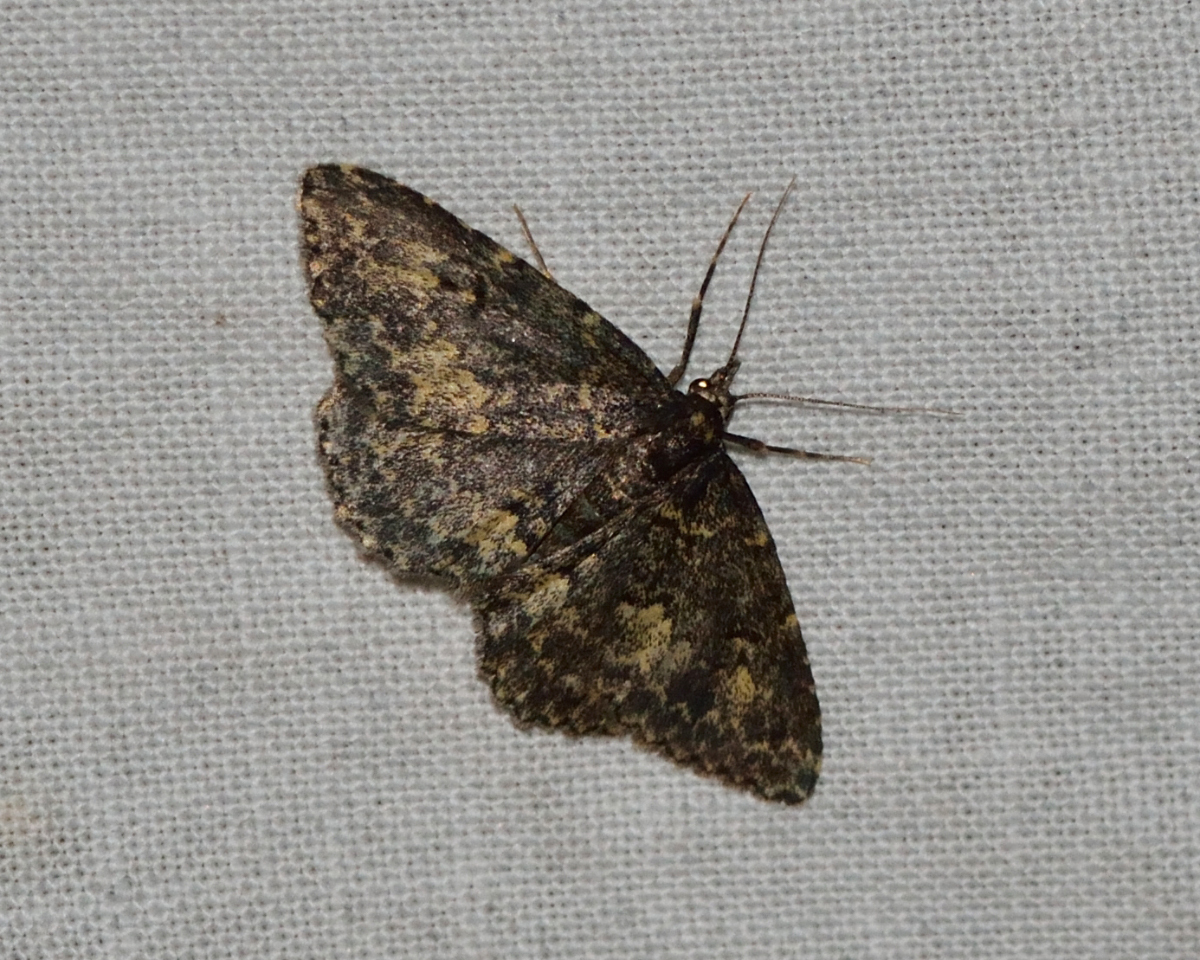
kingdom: Animalia
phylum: Arthropoda
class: Insecta
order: Lepidoptera
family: Erebidae
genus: Parascotia
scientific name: Parascotia fuliginaria
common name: Waved black
